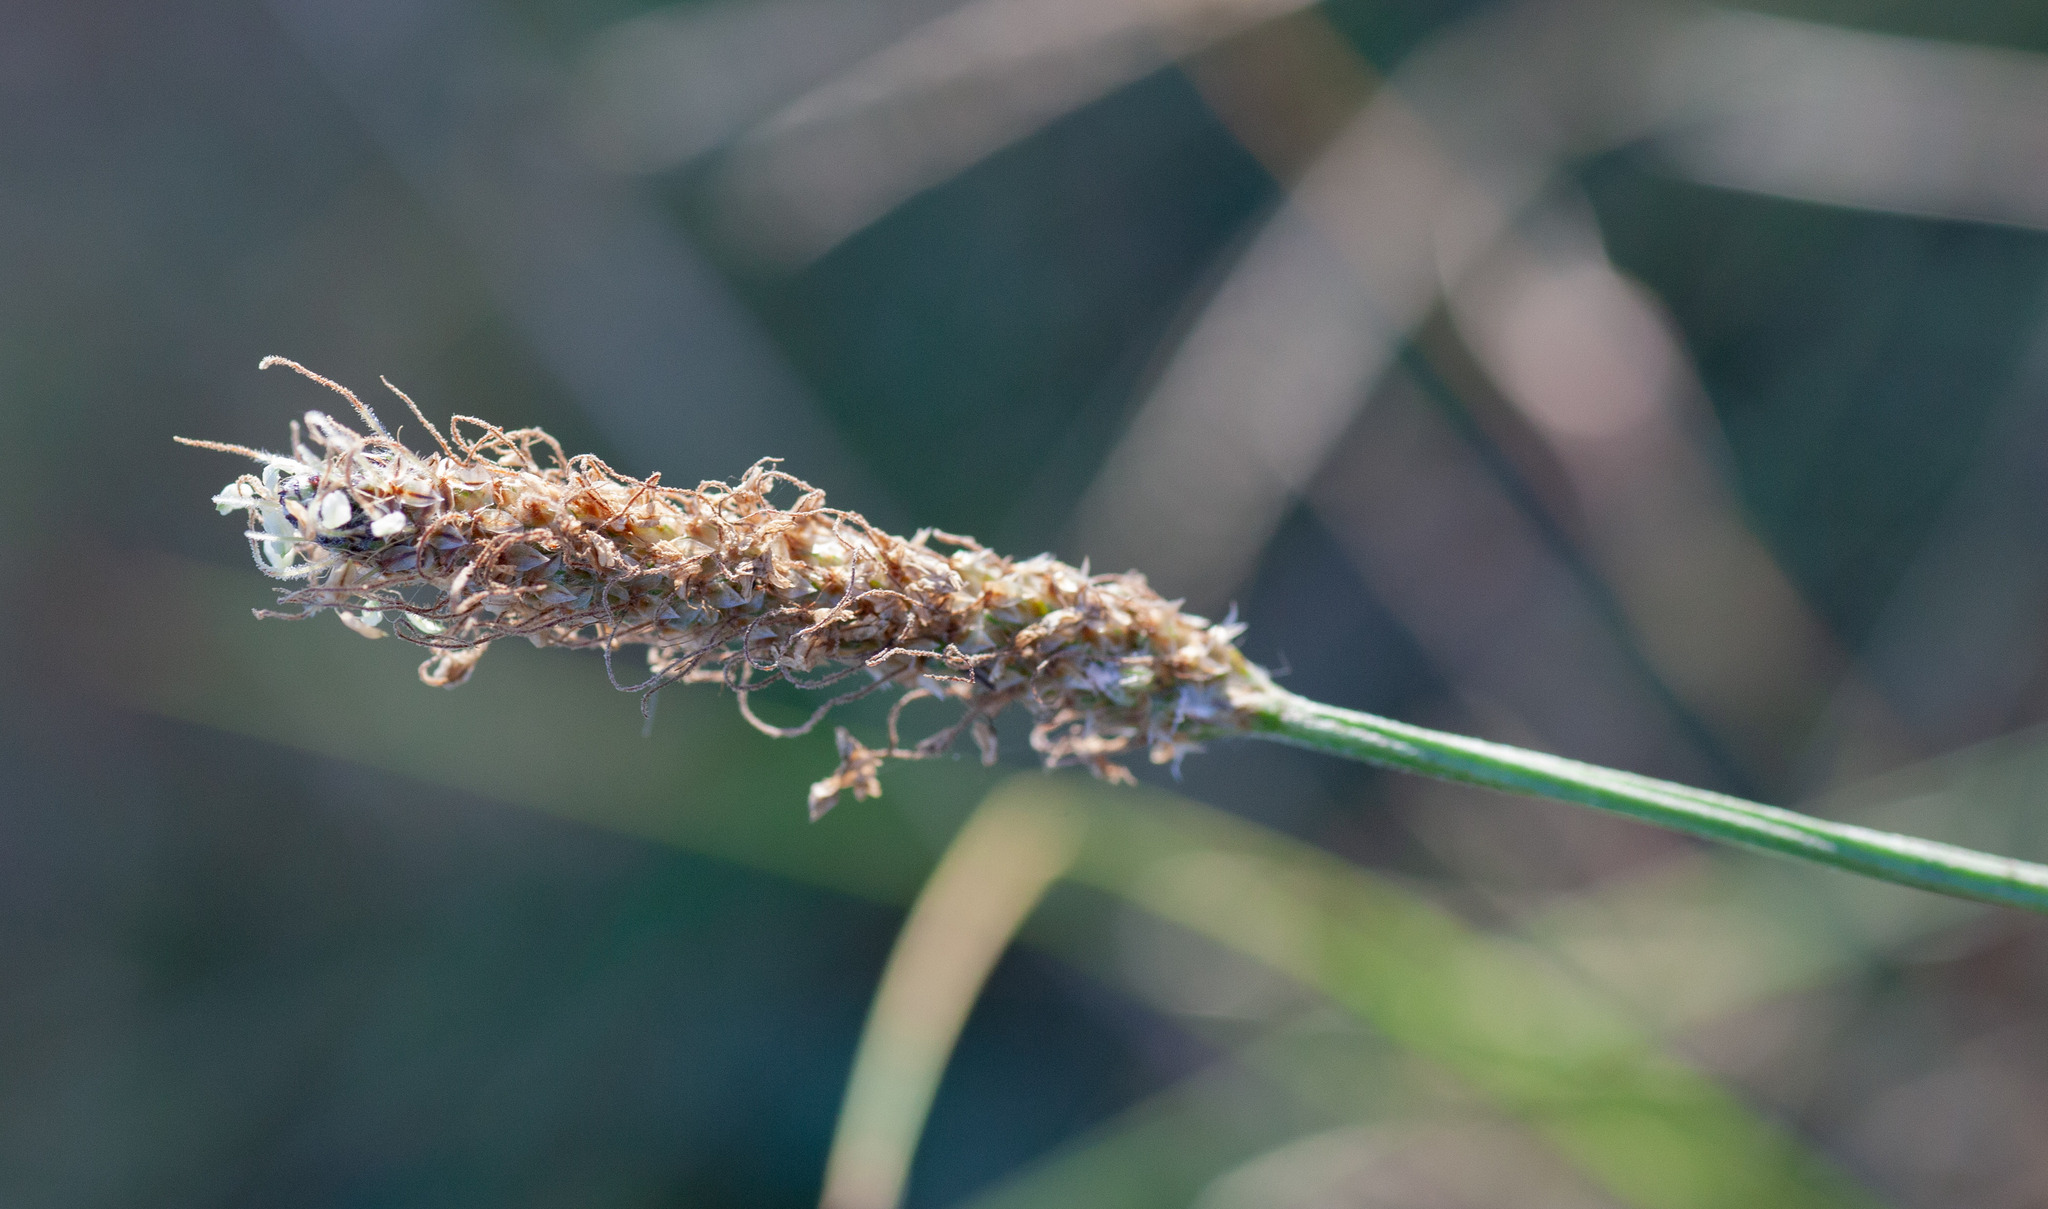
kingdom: Plantae
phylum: Tracheophyta
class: Magnoliopsida
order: Lamiales
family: Plantaginaceae
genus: Plantago
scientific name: Plantago lanceolata
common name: Ribwort plantain
